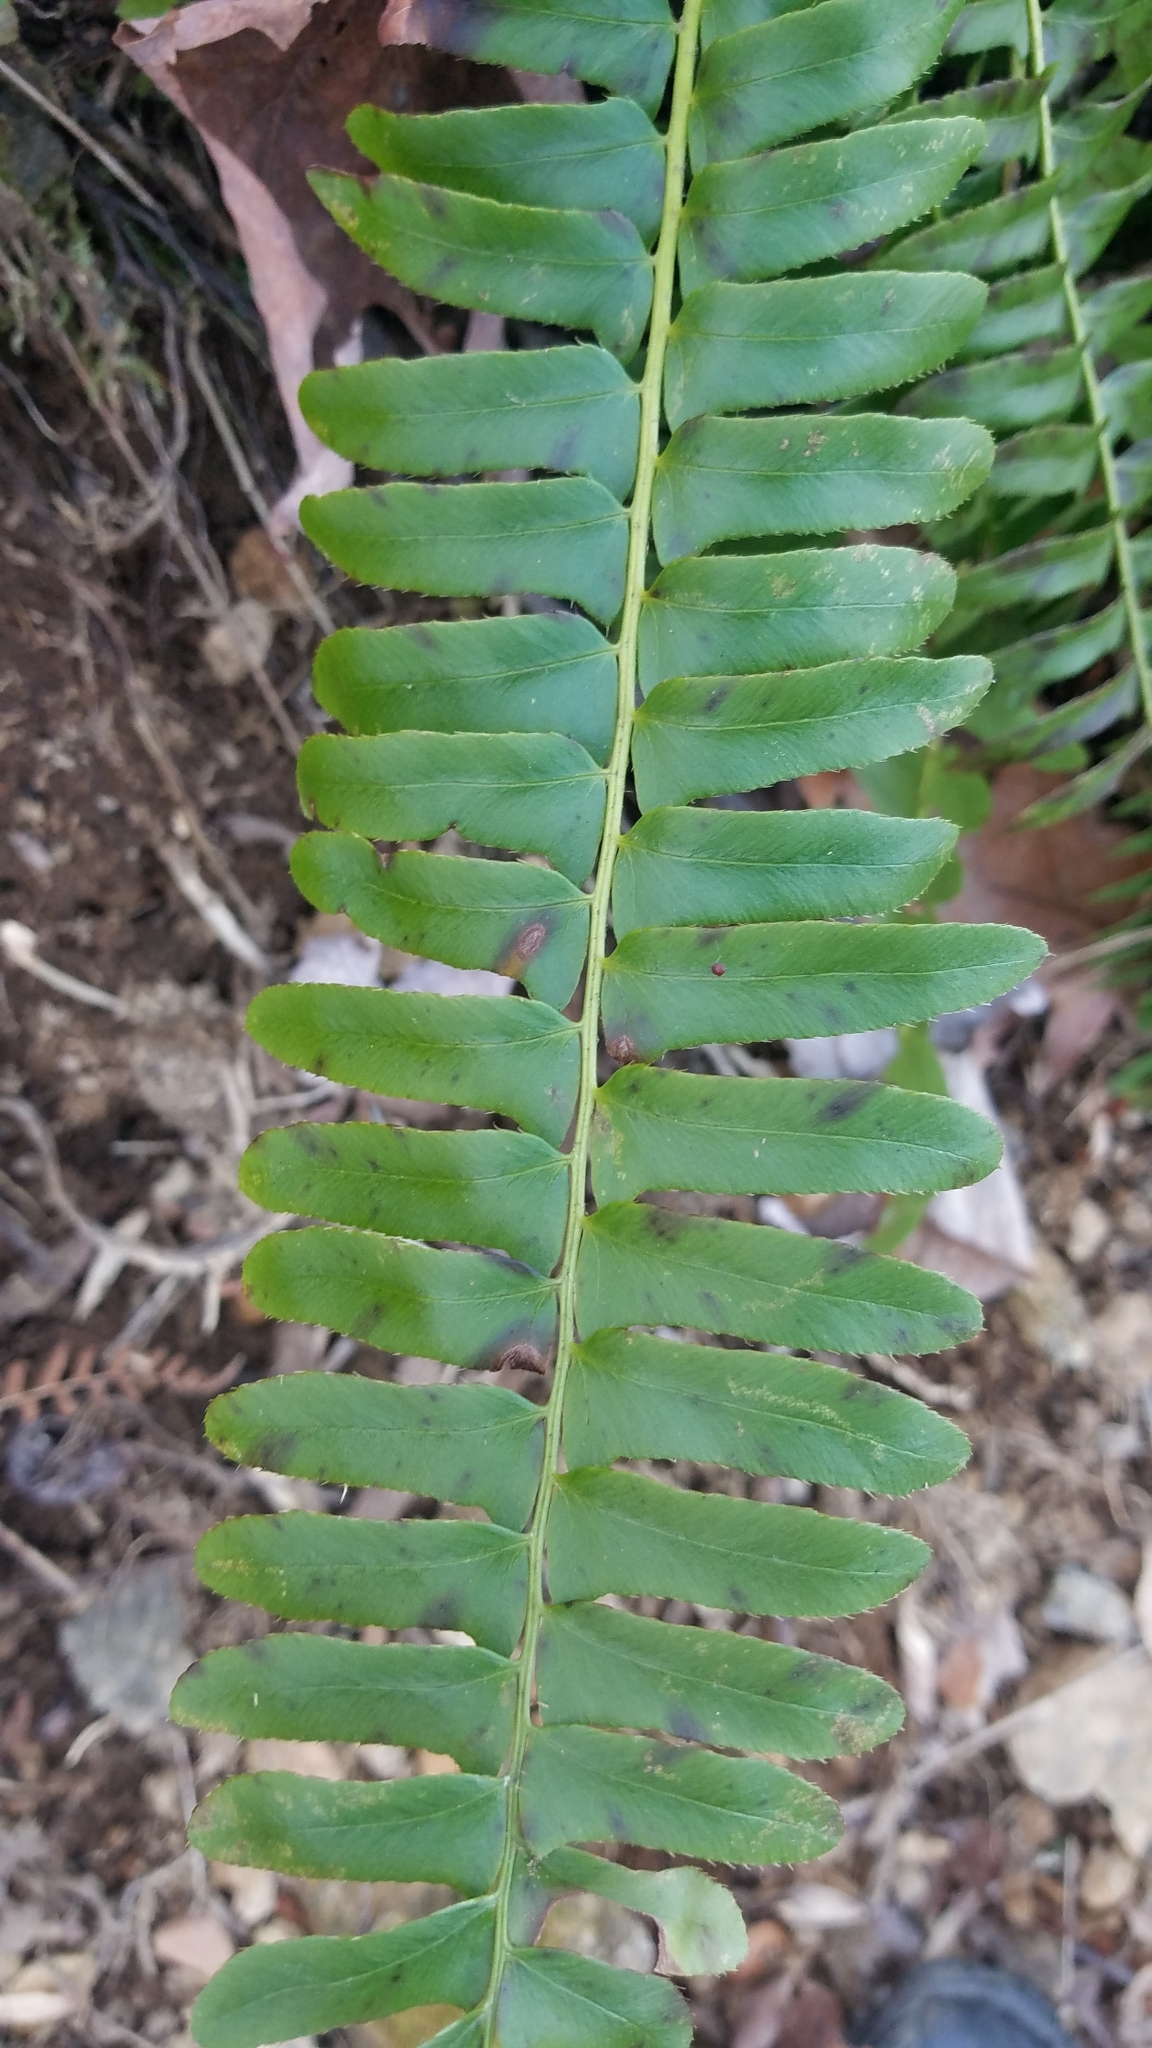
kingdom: Plantae
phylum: Tracheophyta
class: Polypodiopsida
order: Polypodiales
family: Dryopteridaceae
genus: Polystichum
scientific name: Polystichum acrostichoides
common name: Christmas fern
